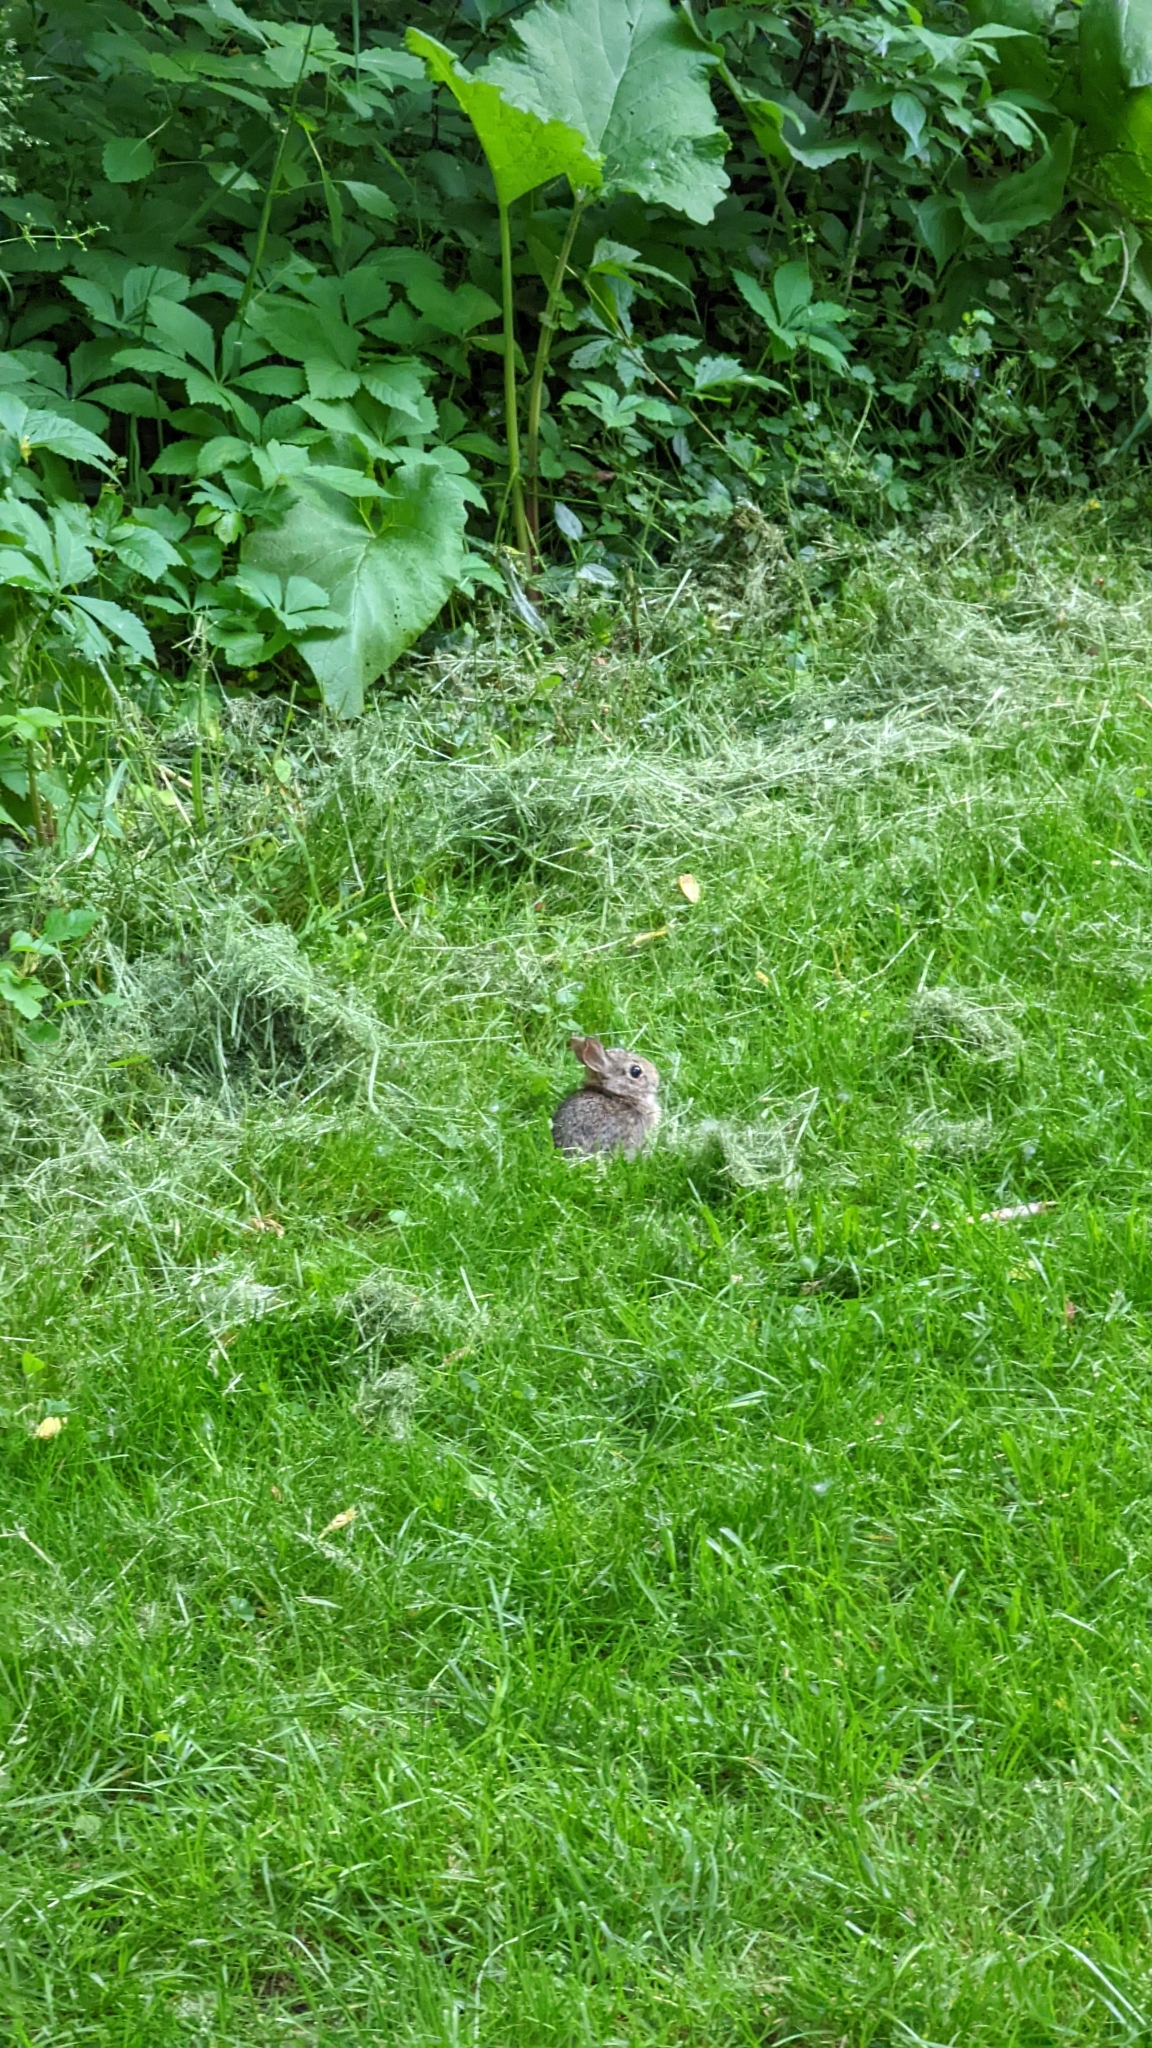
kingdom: Animalia
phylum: Chordata
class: Mammalia
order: Lagomorpha
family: Leporidae
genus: Sylvilagus
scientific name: Sylvilagus floridanus
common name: Eastern cottontail
